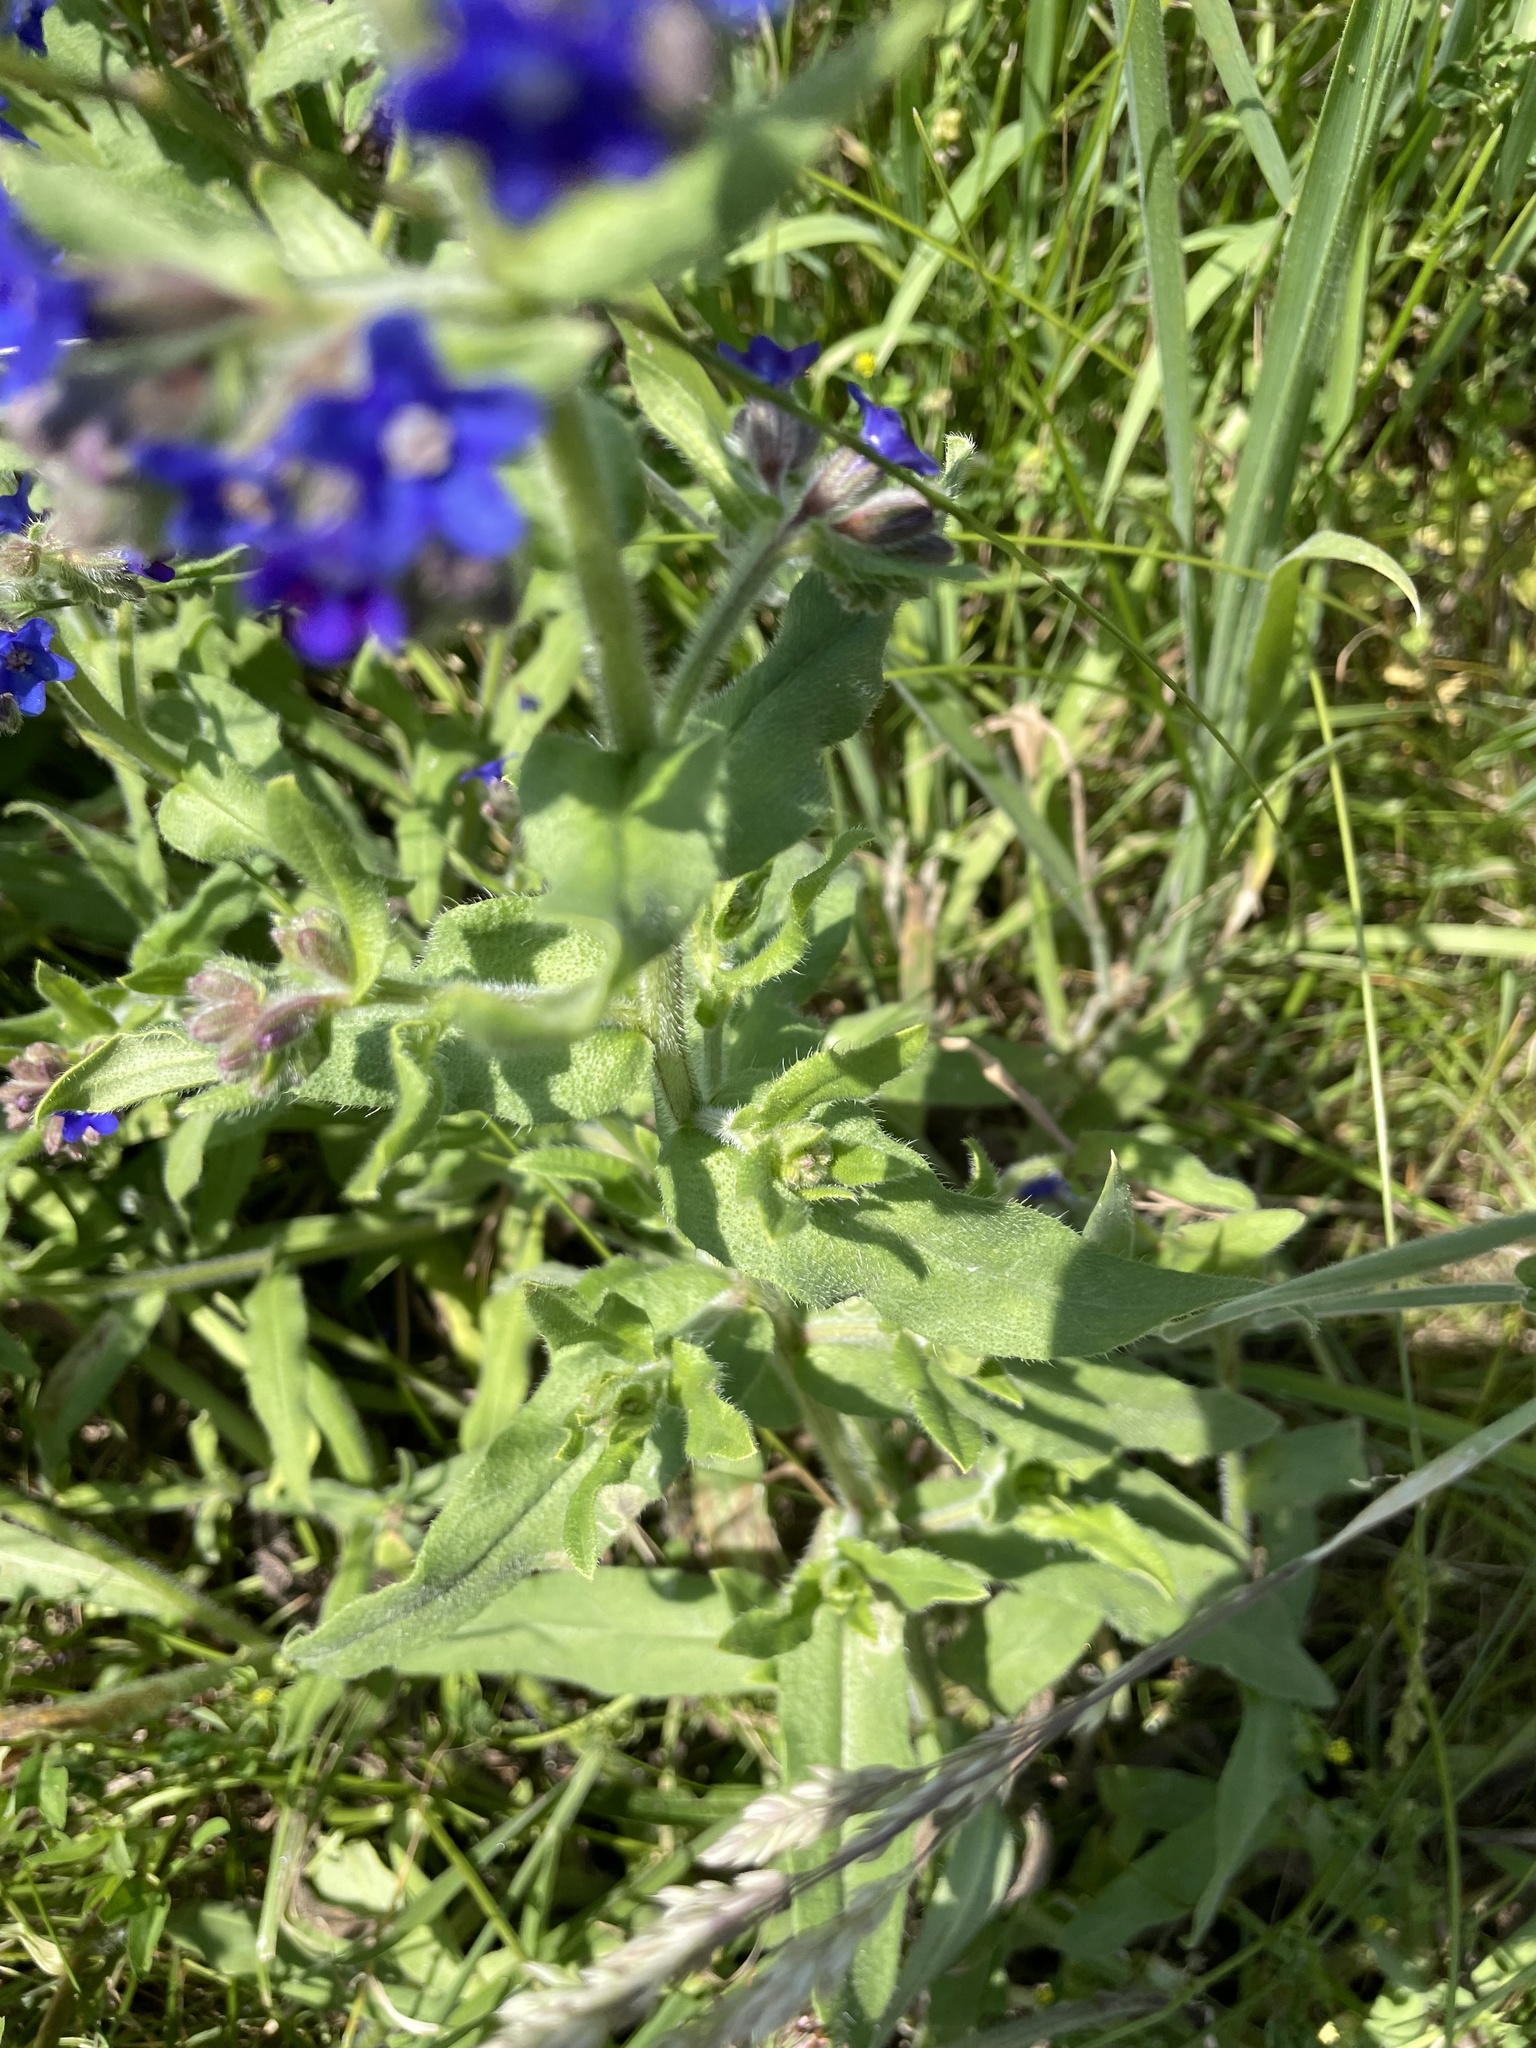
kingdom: Plantae
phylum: Tracheophyta
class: Magnoliopsida
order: Boraginales
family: Boraginaceae
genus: Anchusa
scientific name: Anchusa officinalis
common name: Alkanet
